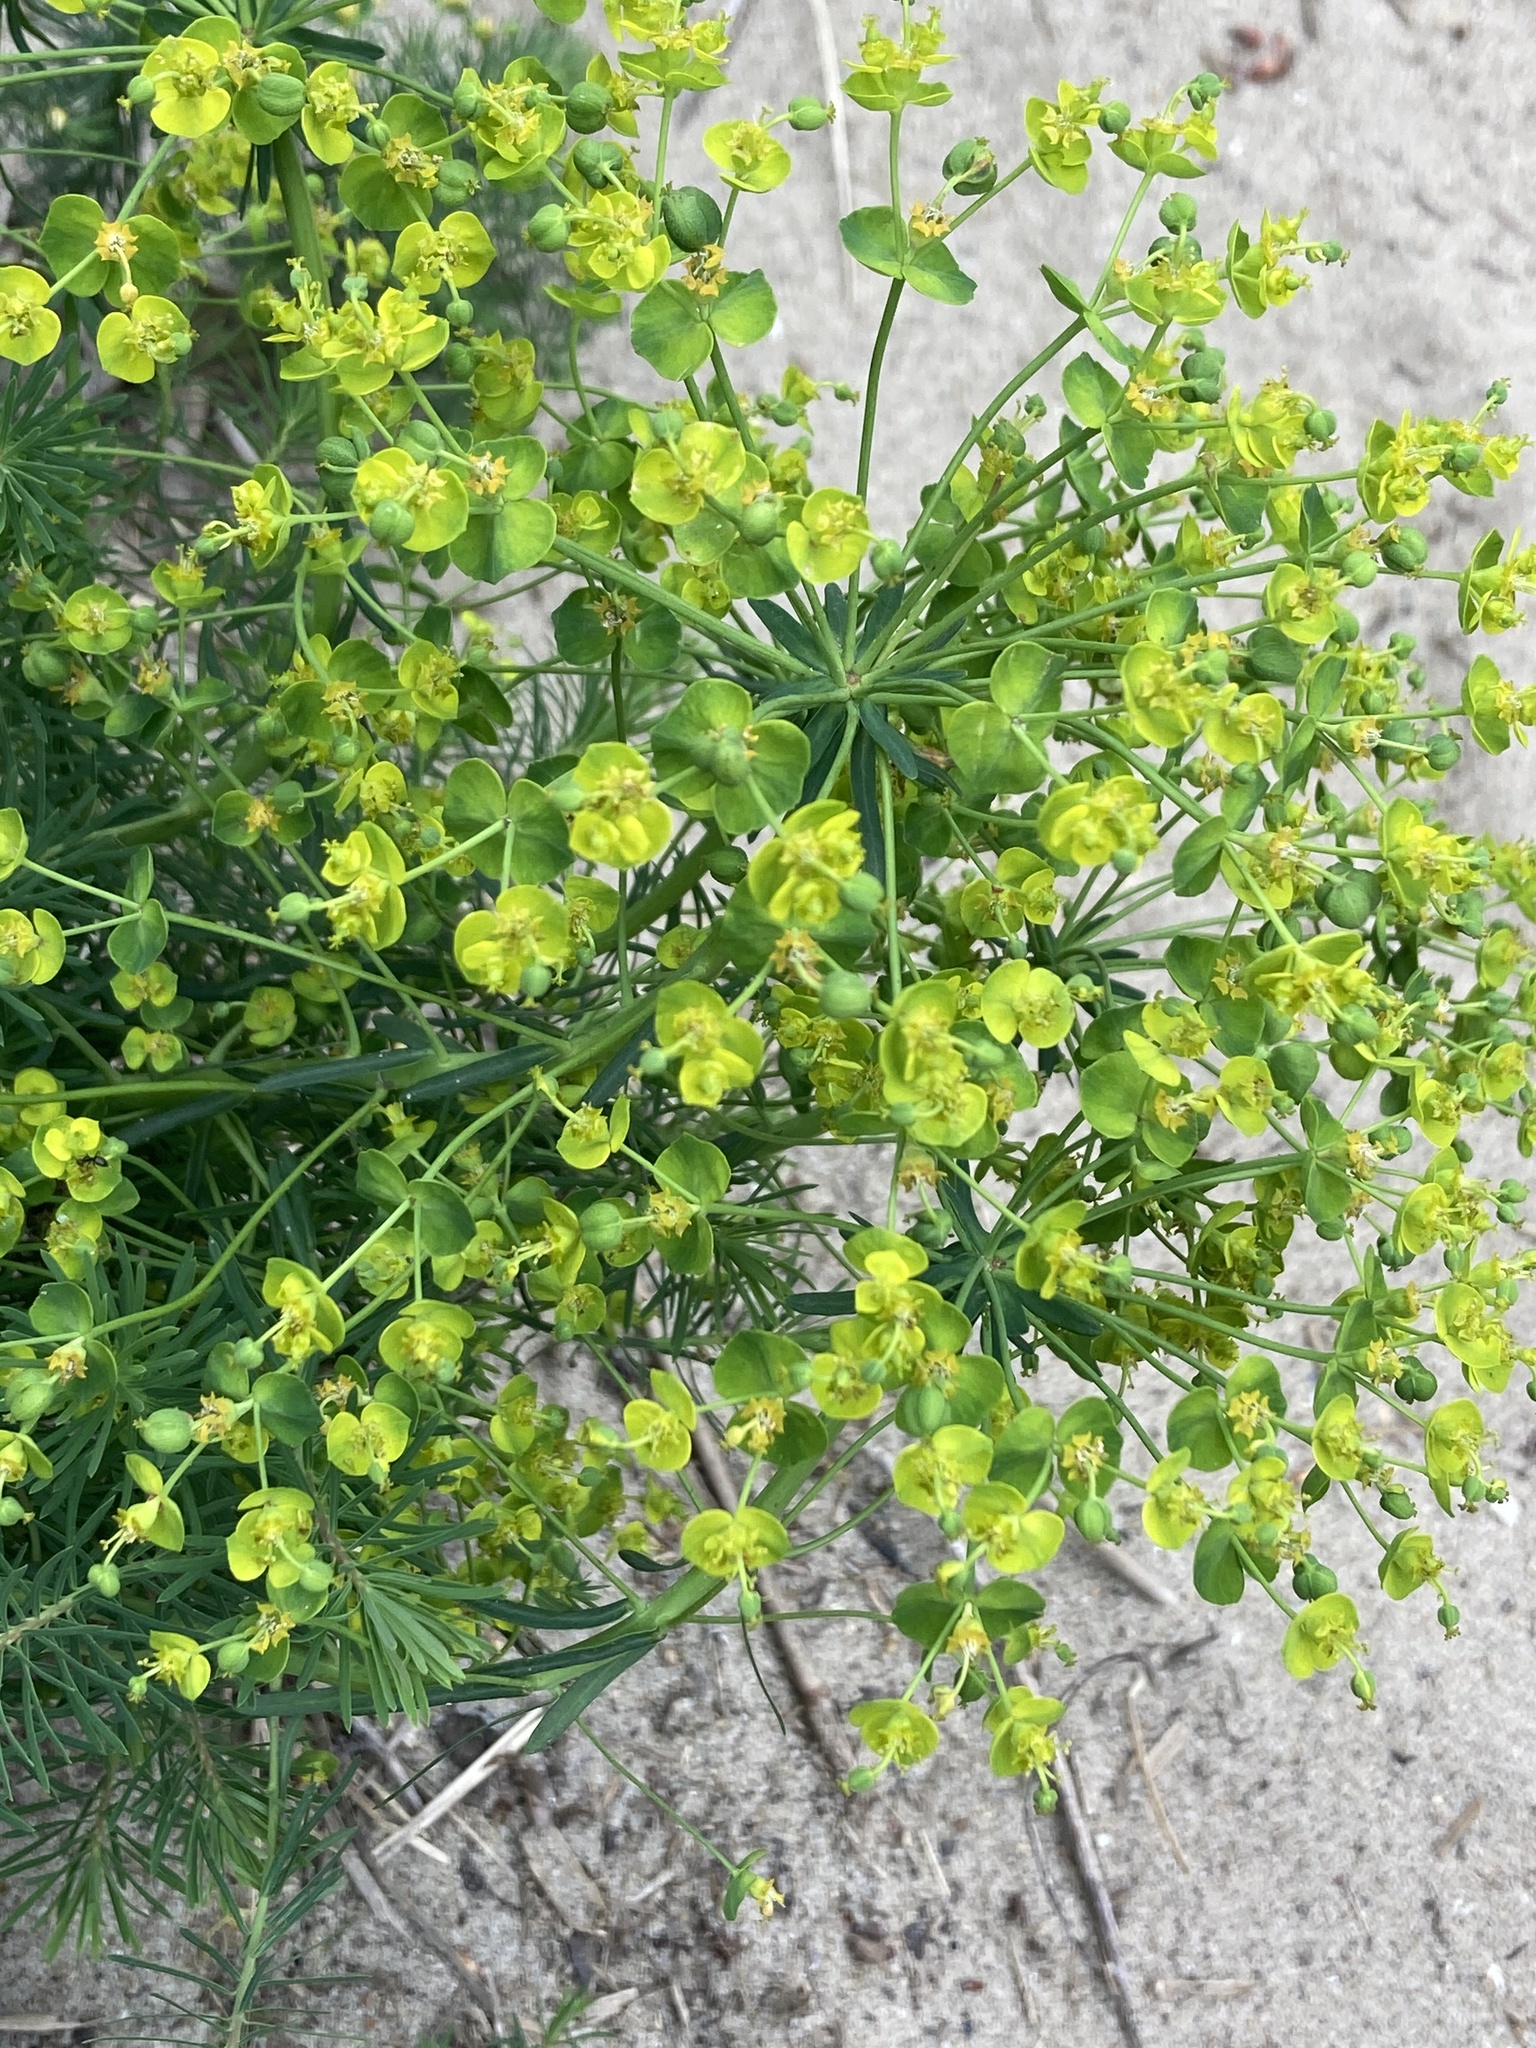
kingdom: Plantae
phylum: Tracheophyta
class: Magnoliopsida
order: Malpighiales
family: Euphorbiaceae
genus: Euphorbia
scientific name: Euphorbia cyparissias
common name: Cypress spurge
